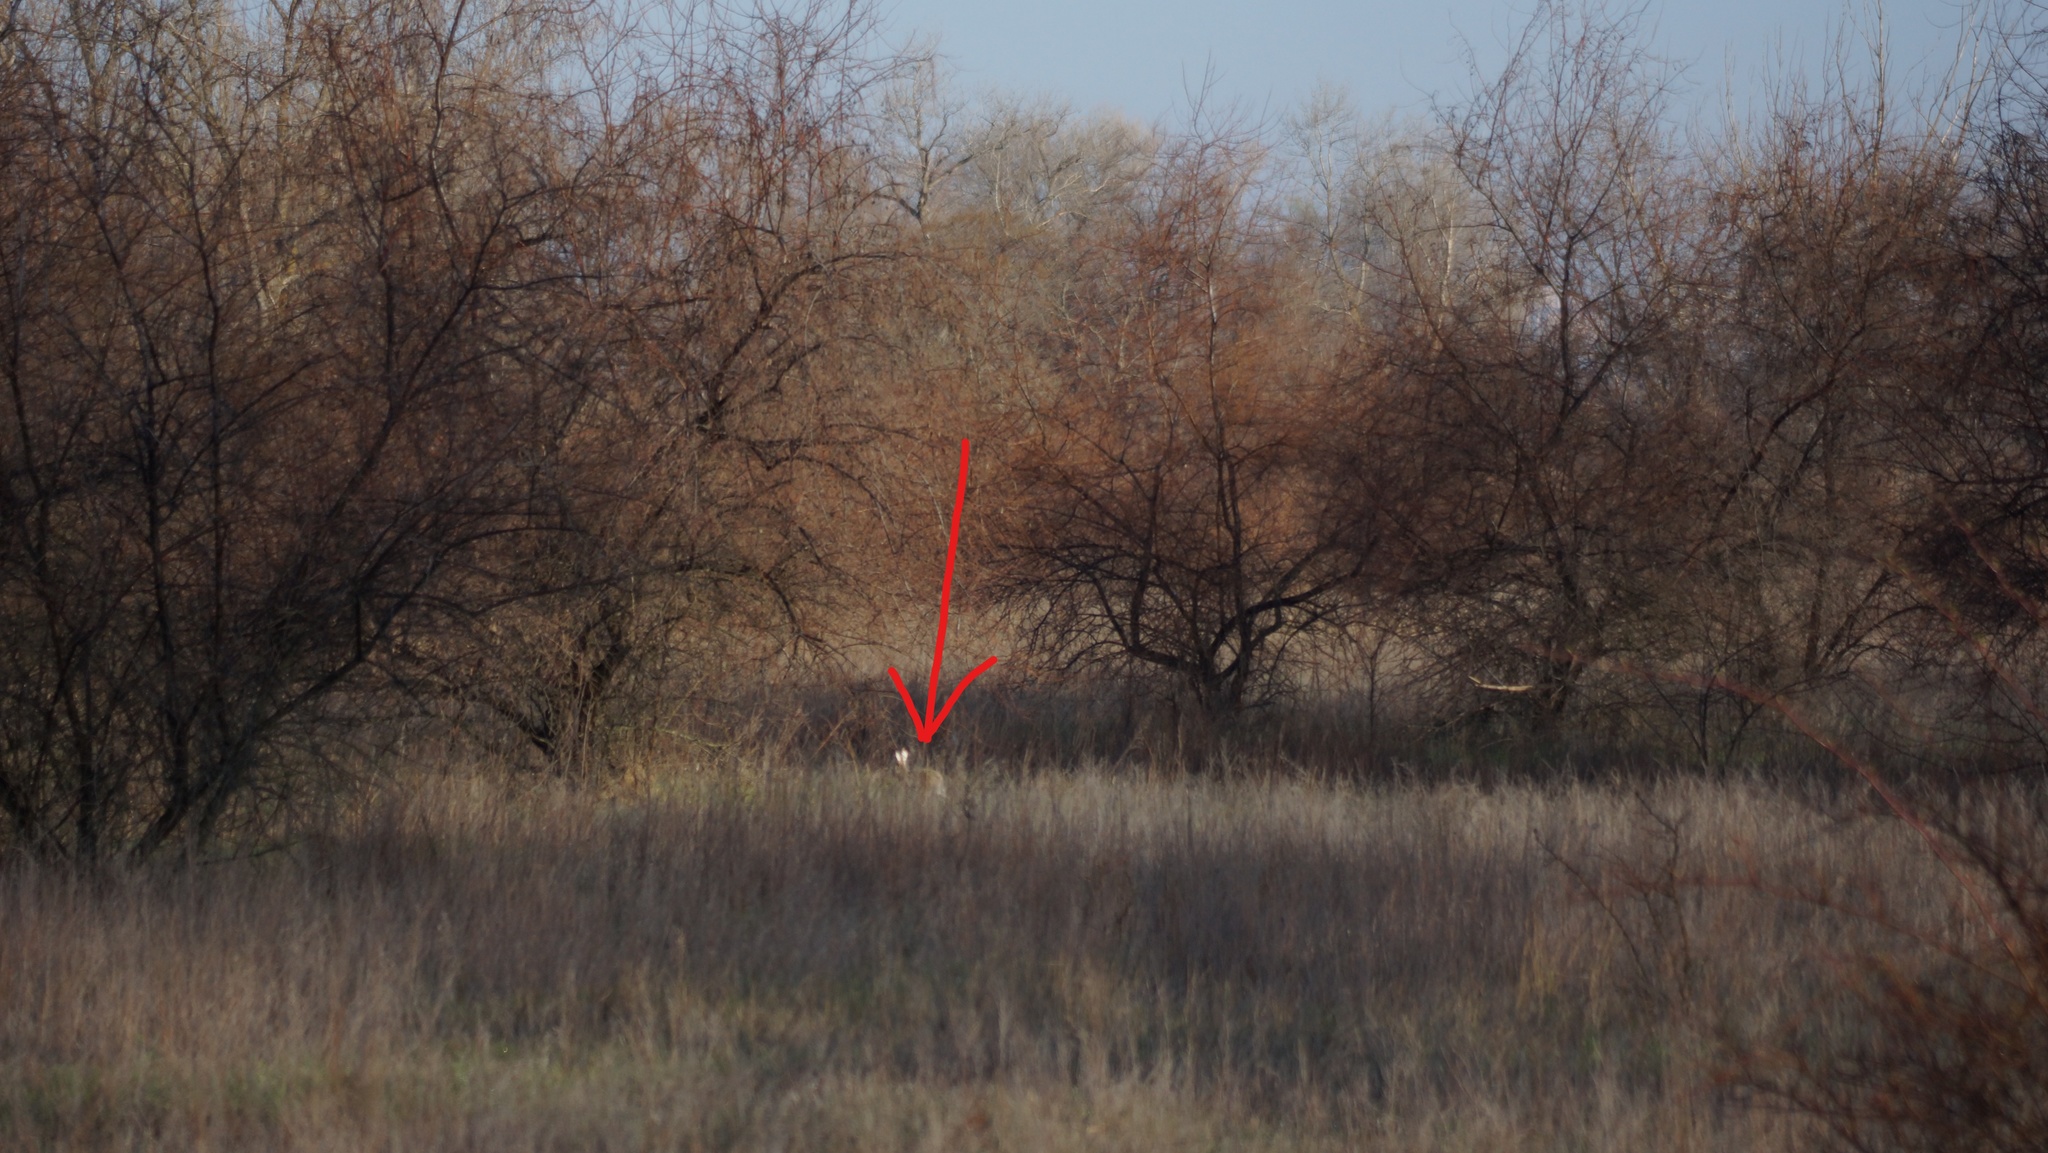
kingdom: Animalia
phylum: Chordata
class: Mammalia
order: Lagomorpha
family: Leporidae
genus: Lepus
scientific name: Lepus europaeus
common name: European hare
